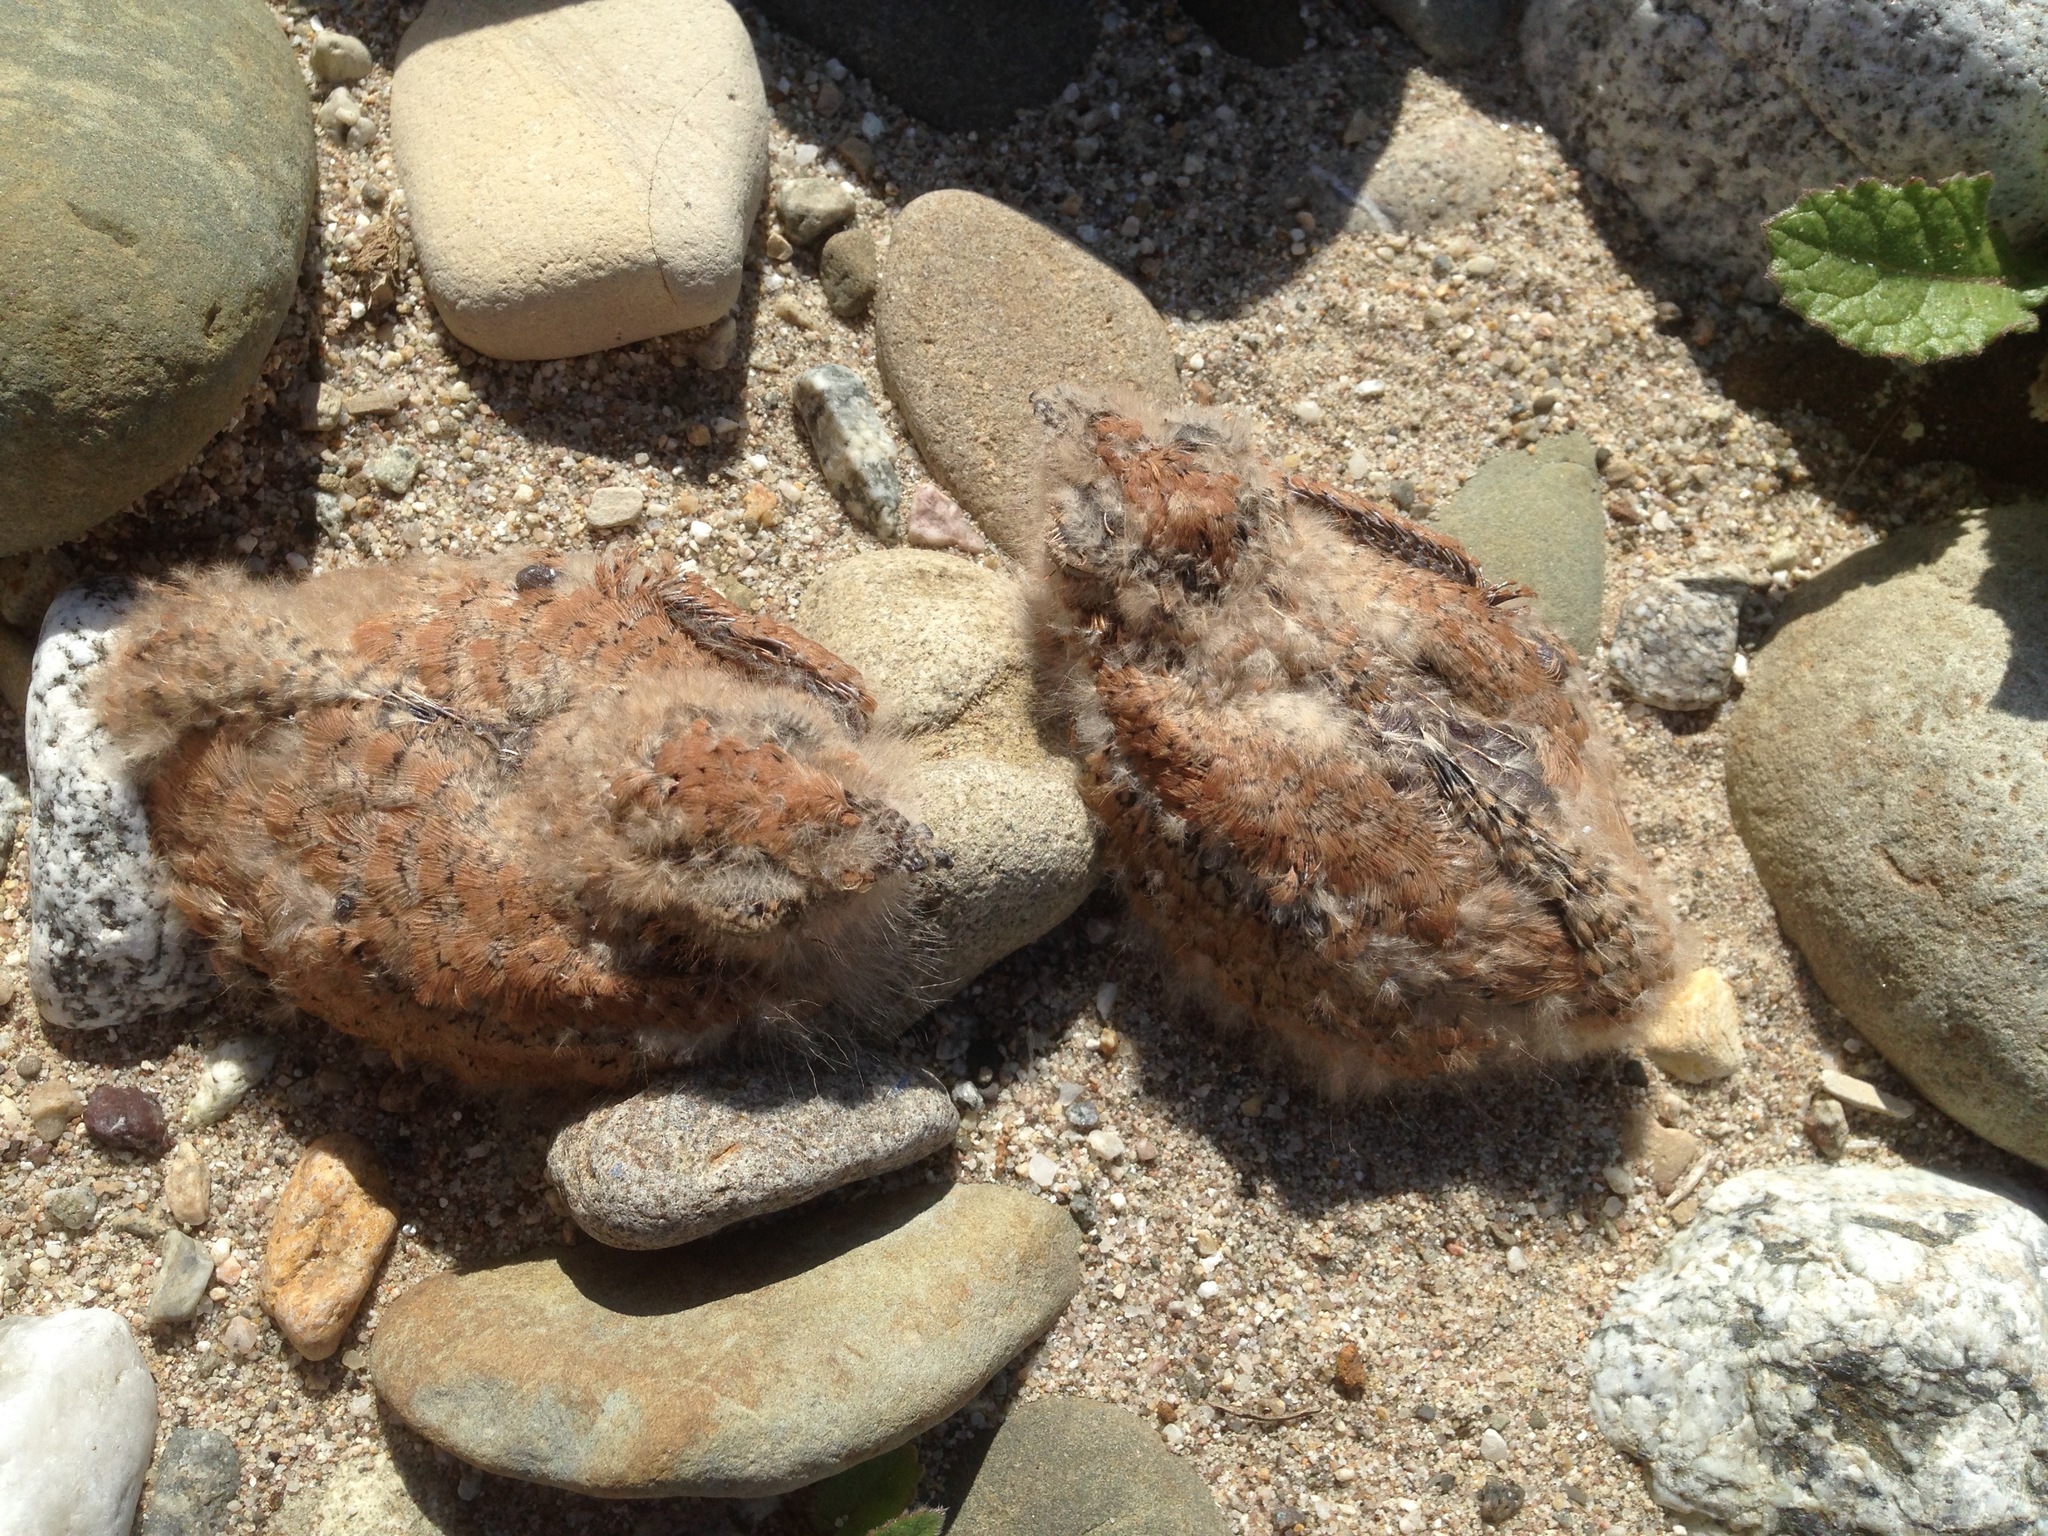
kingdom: Animalia
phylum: Chordata
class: Aves
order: Caprimulgiformes
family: Caprimulgidae
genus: Chordeiles
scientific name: Chordeiles acutipennis
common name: Lesser nighthawk
